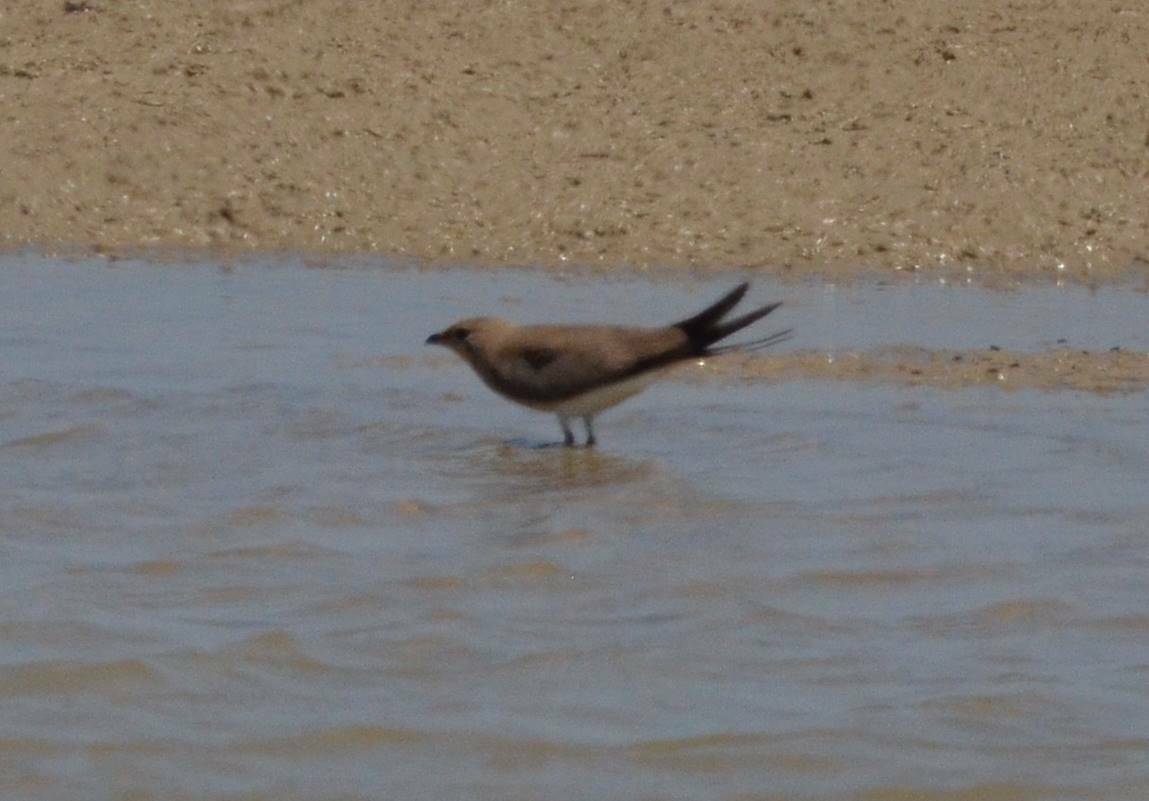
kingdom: Animalia
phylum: Chordata
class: Aves
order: Charadriiformes
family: Glareolidae
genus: Glareola
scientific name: Glareola pratincola
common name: Collared pratincole
